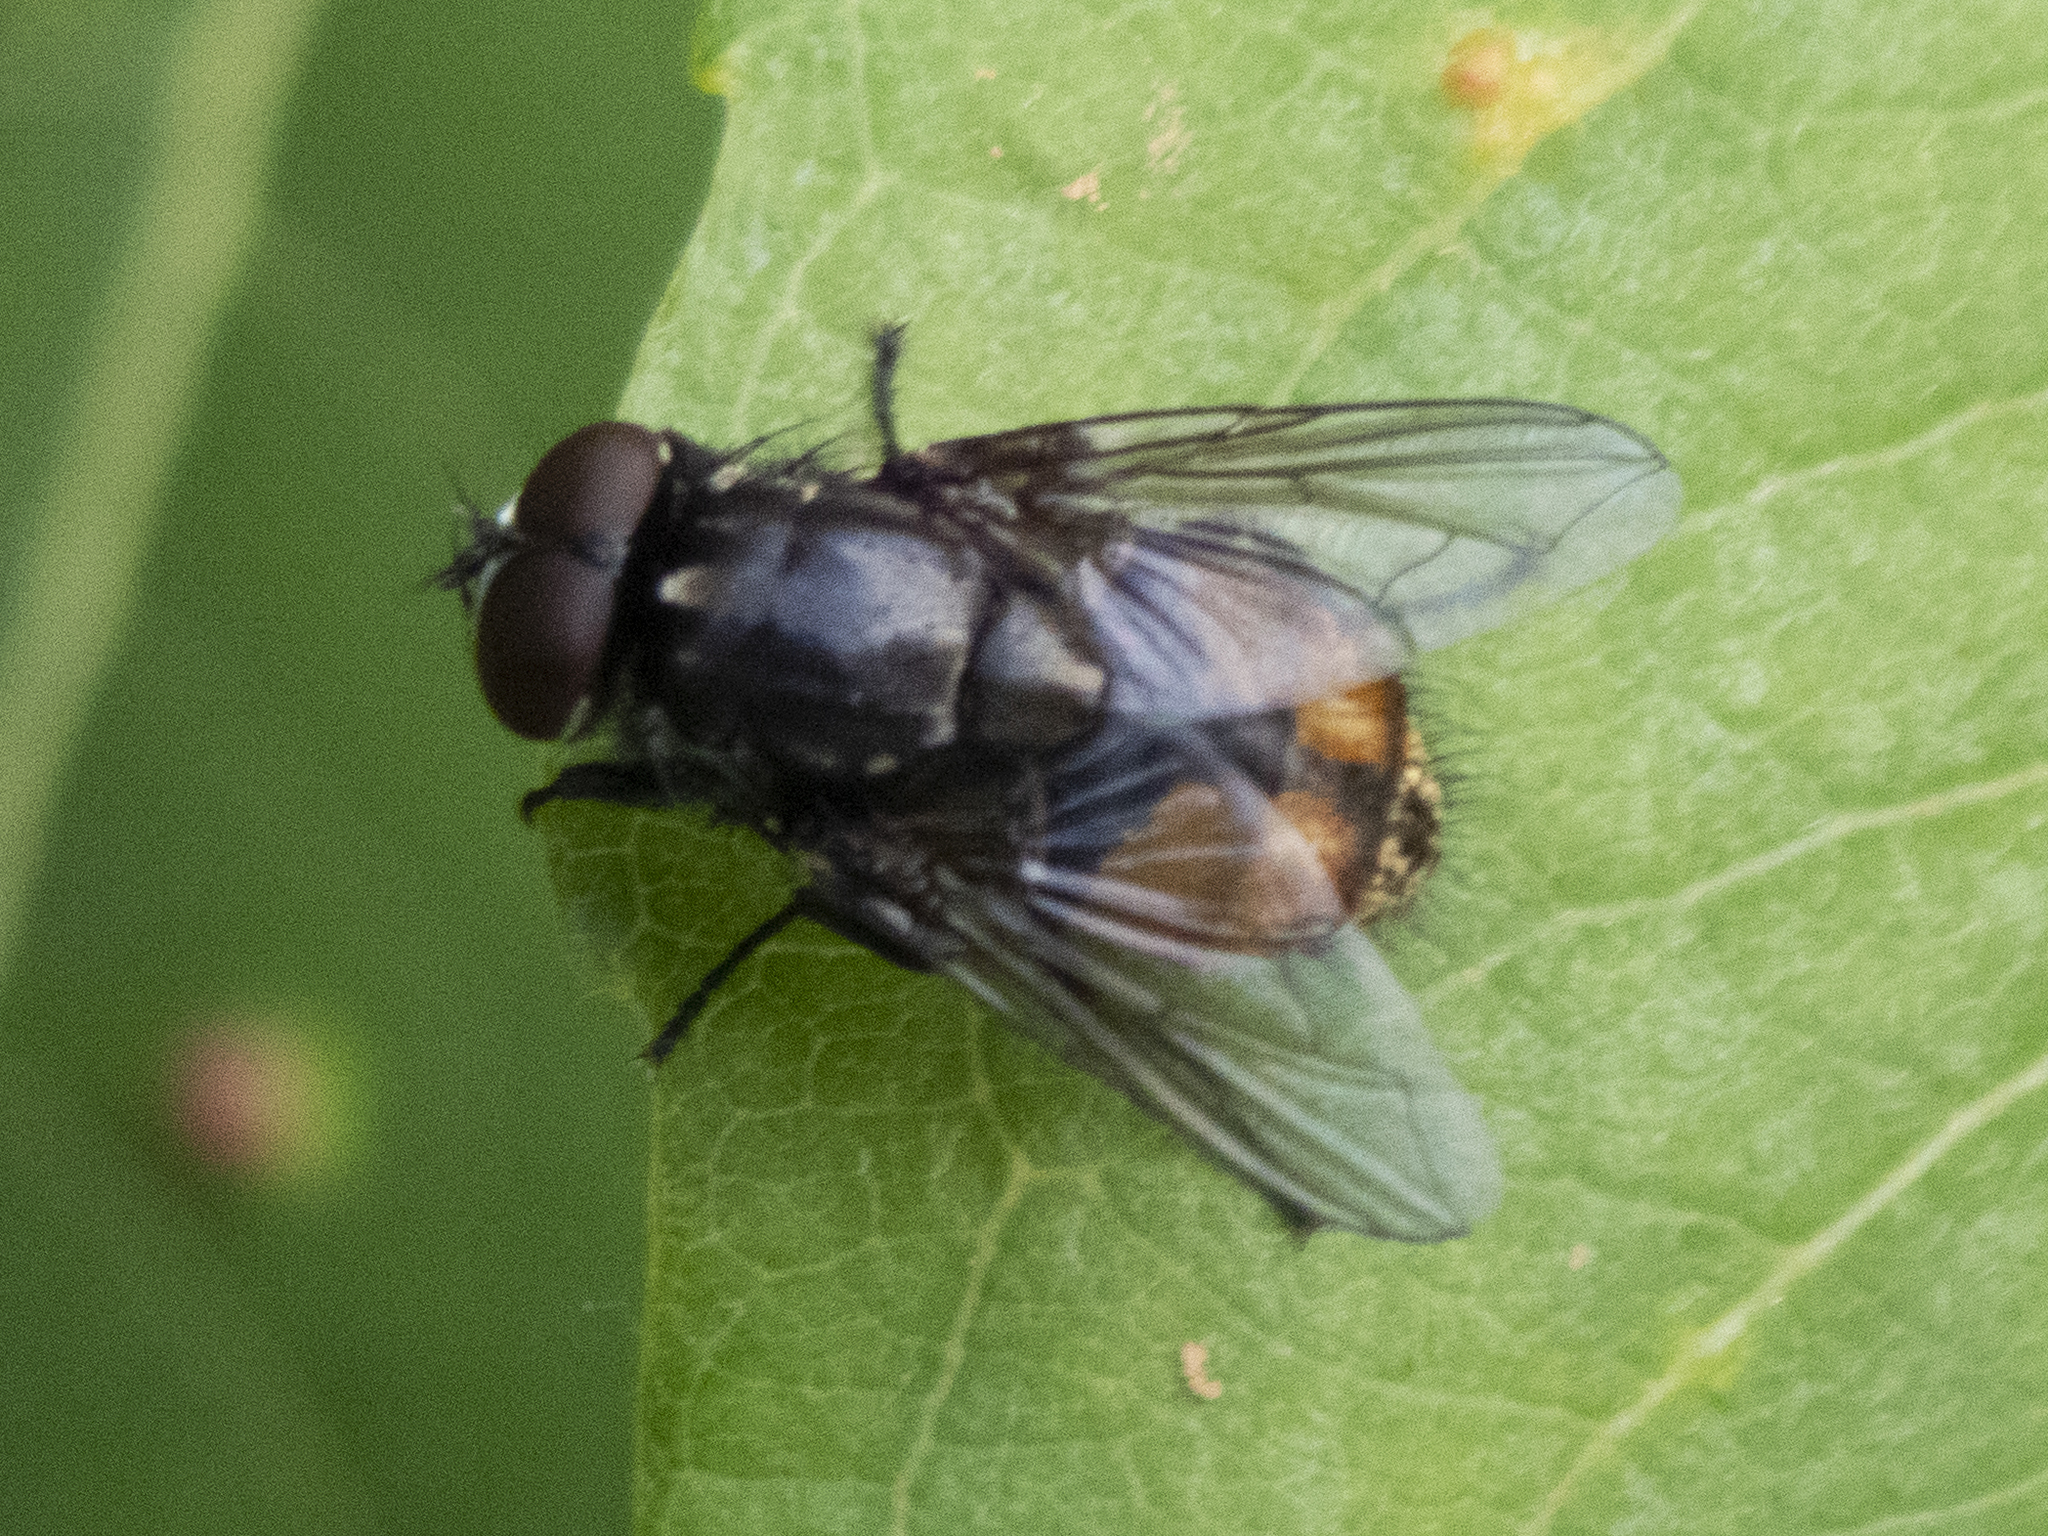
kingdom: Animalia
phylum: Arthropoda
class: Insecta
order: Diptera
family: Muscidae
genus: Musca
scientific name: Musca autumnalis
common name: Face fly
